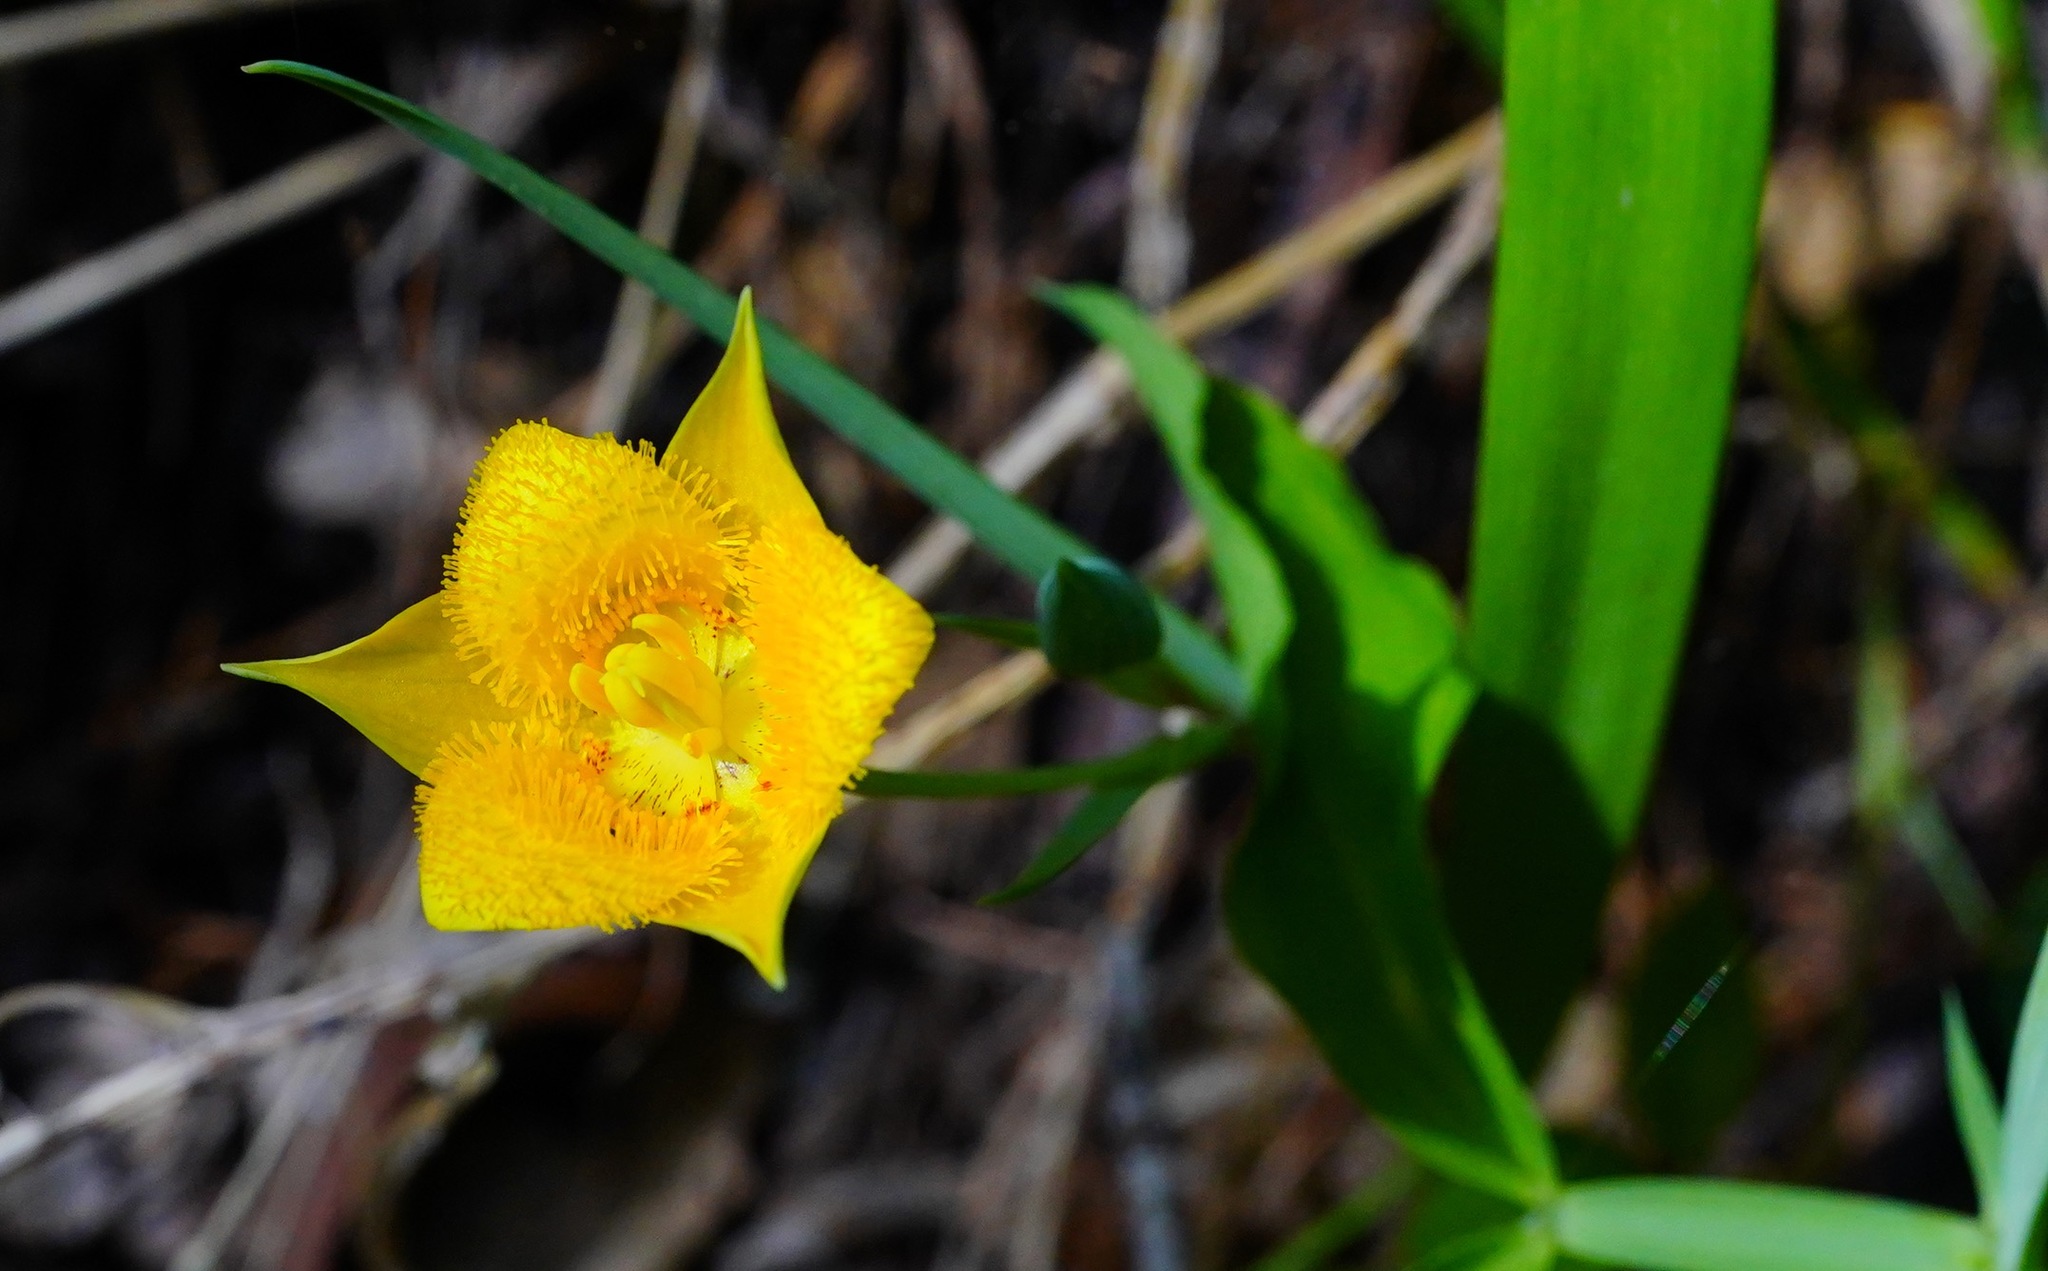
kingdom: Plantae
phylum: Tracheophyta
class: Liliopsida
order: Liliales
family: Liliaceae
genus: Calochortus
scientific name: Calochortus monophyllus
